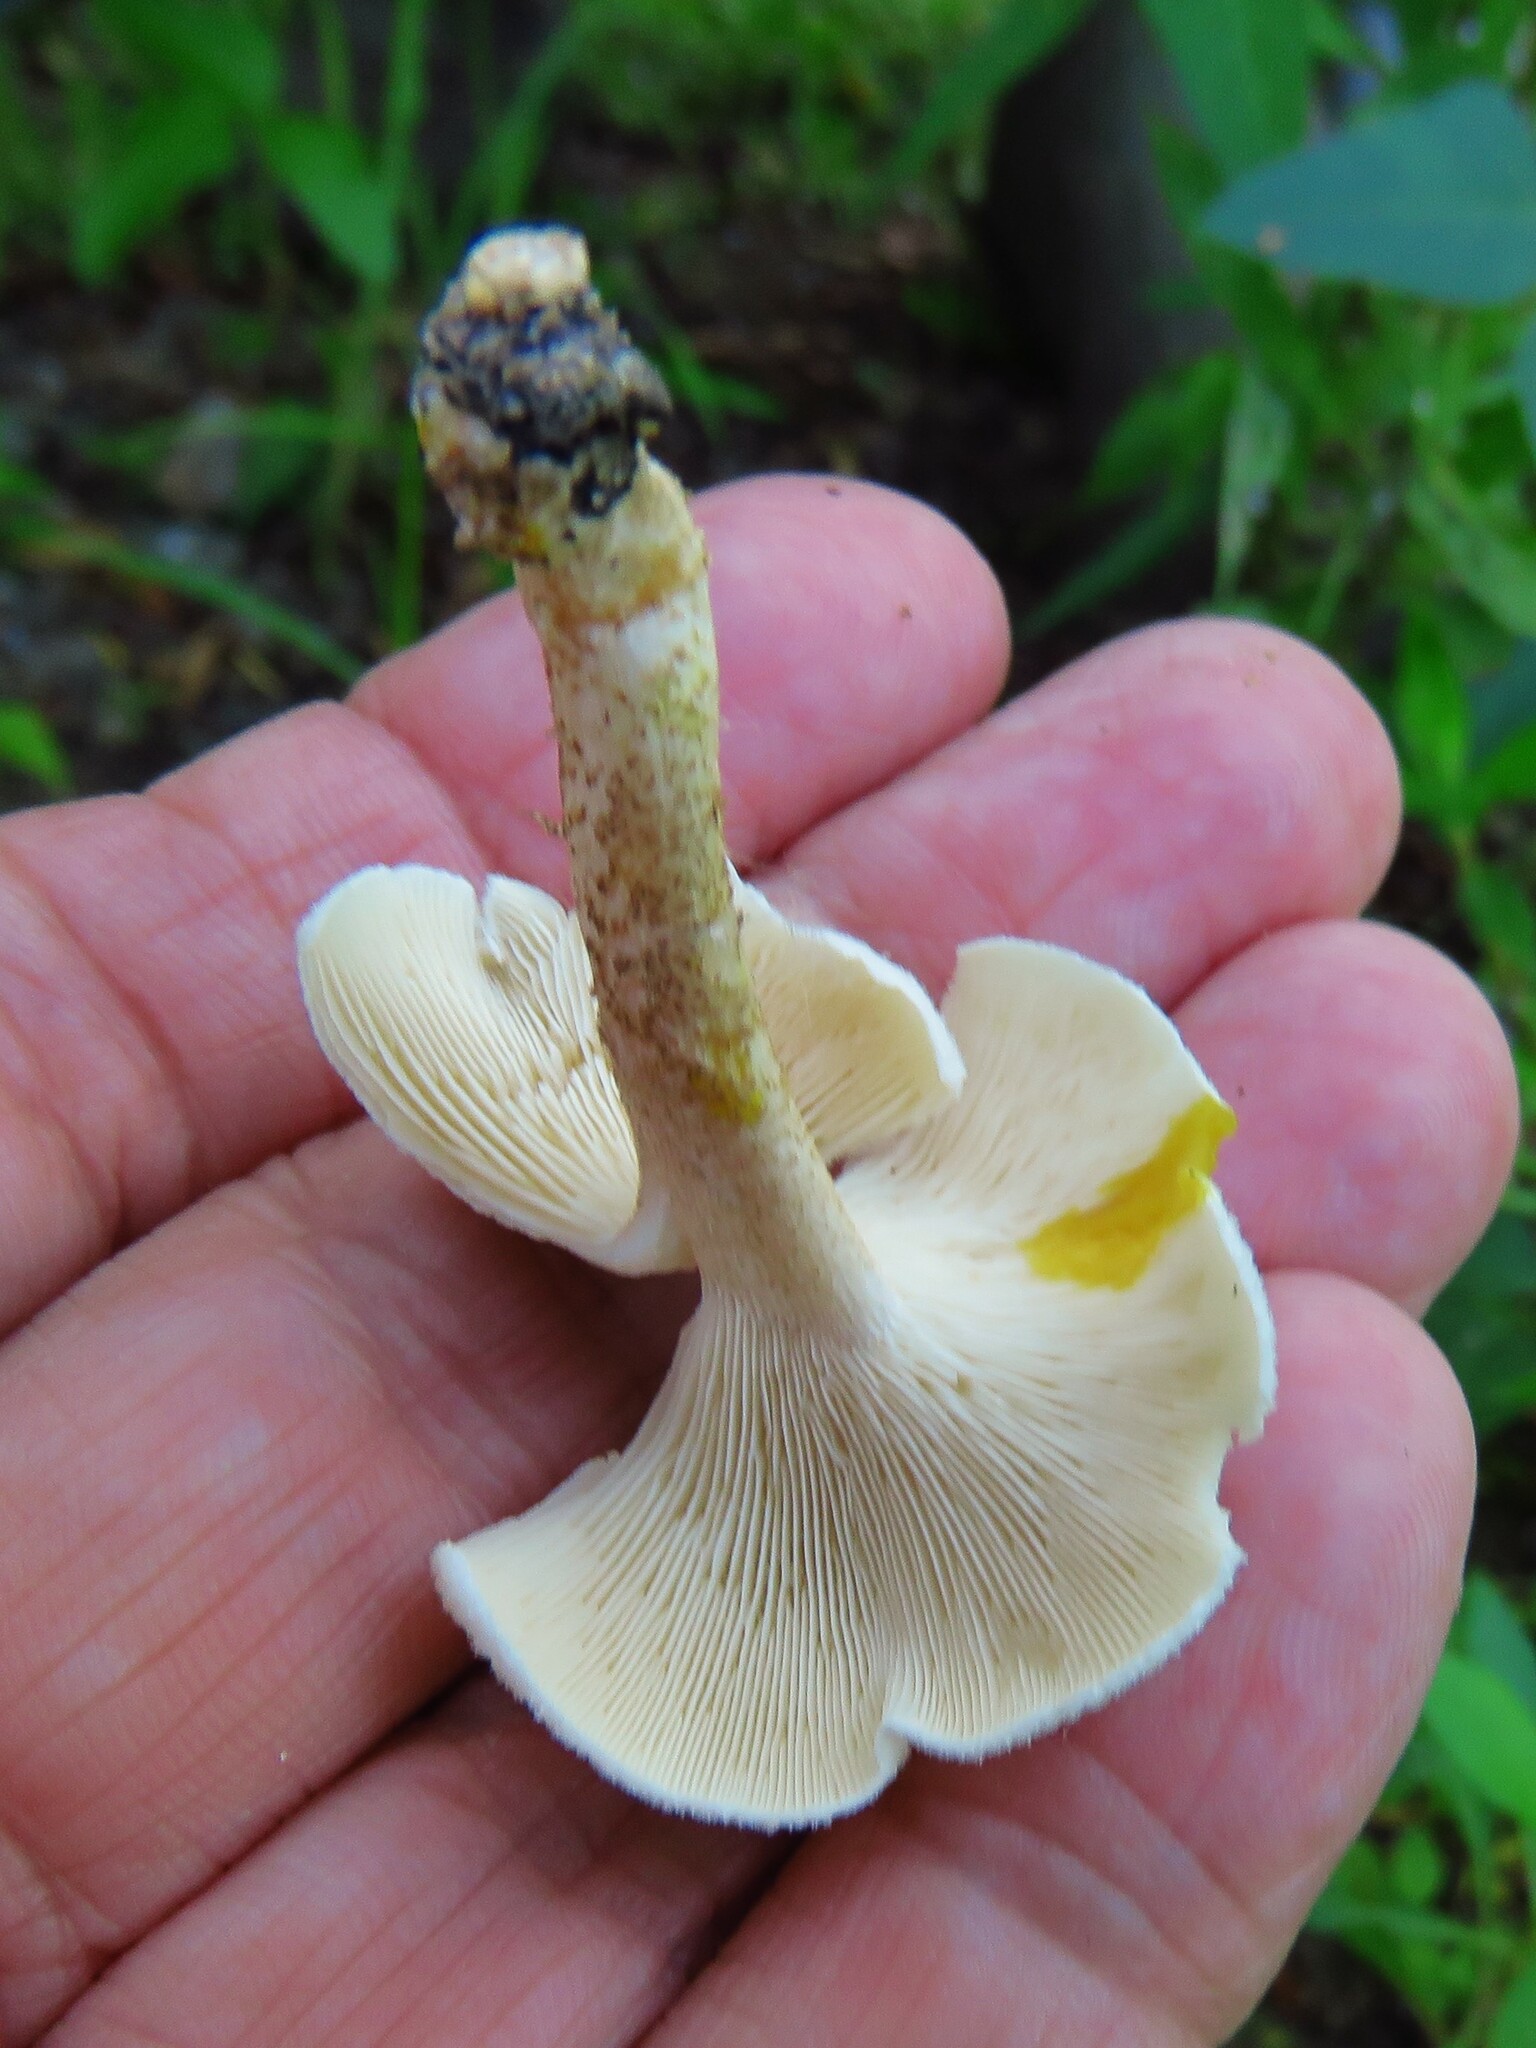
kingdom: Fungi
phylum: Basidiomycota
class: Agaricomycetes
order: Polyporales
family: Polyporaceae
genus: Lentinus
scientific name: Lentinus tigrinus
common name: Tiger sawgill
